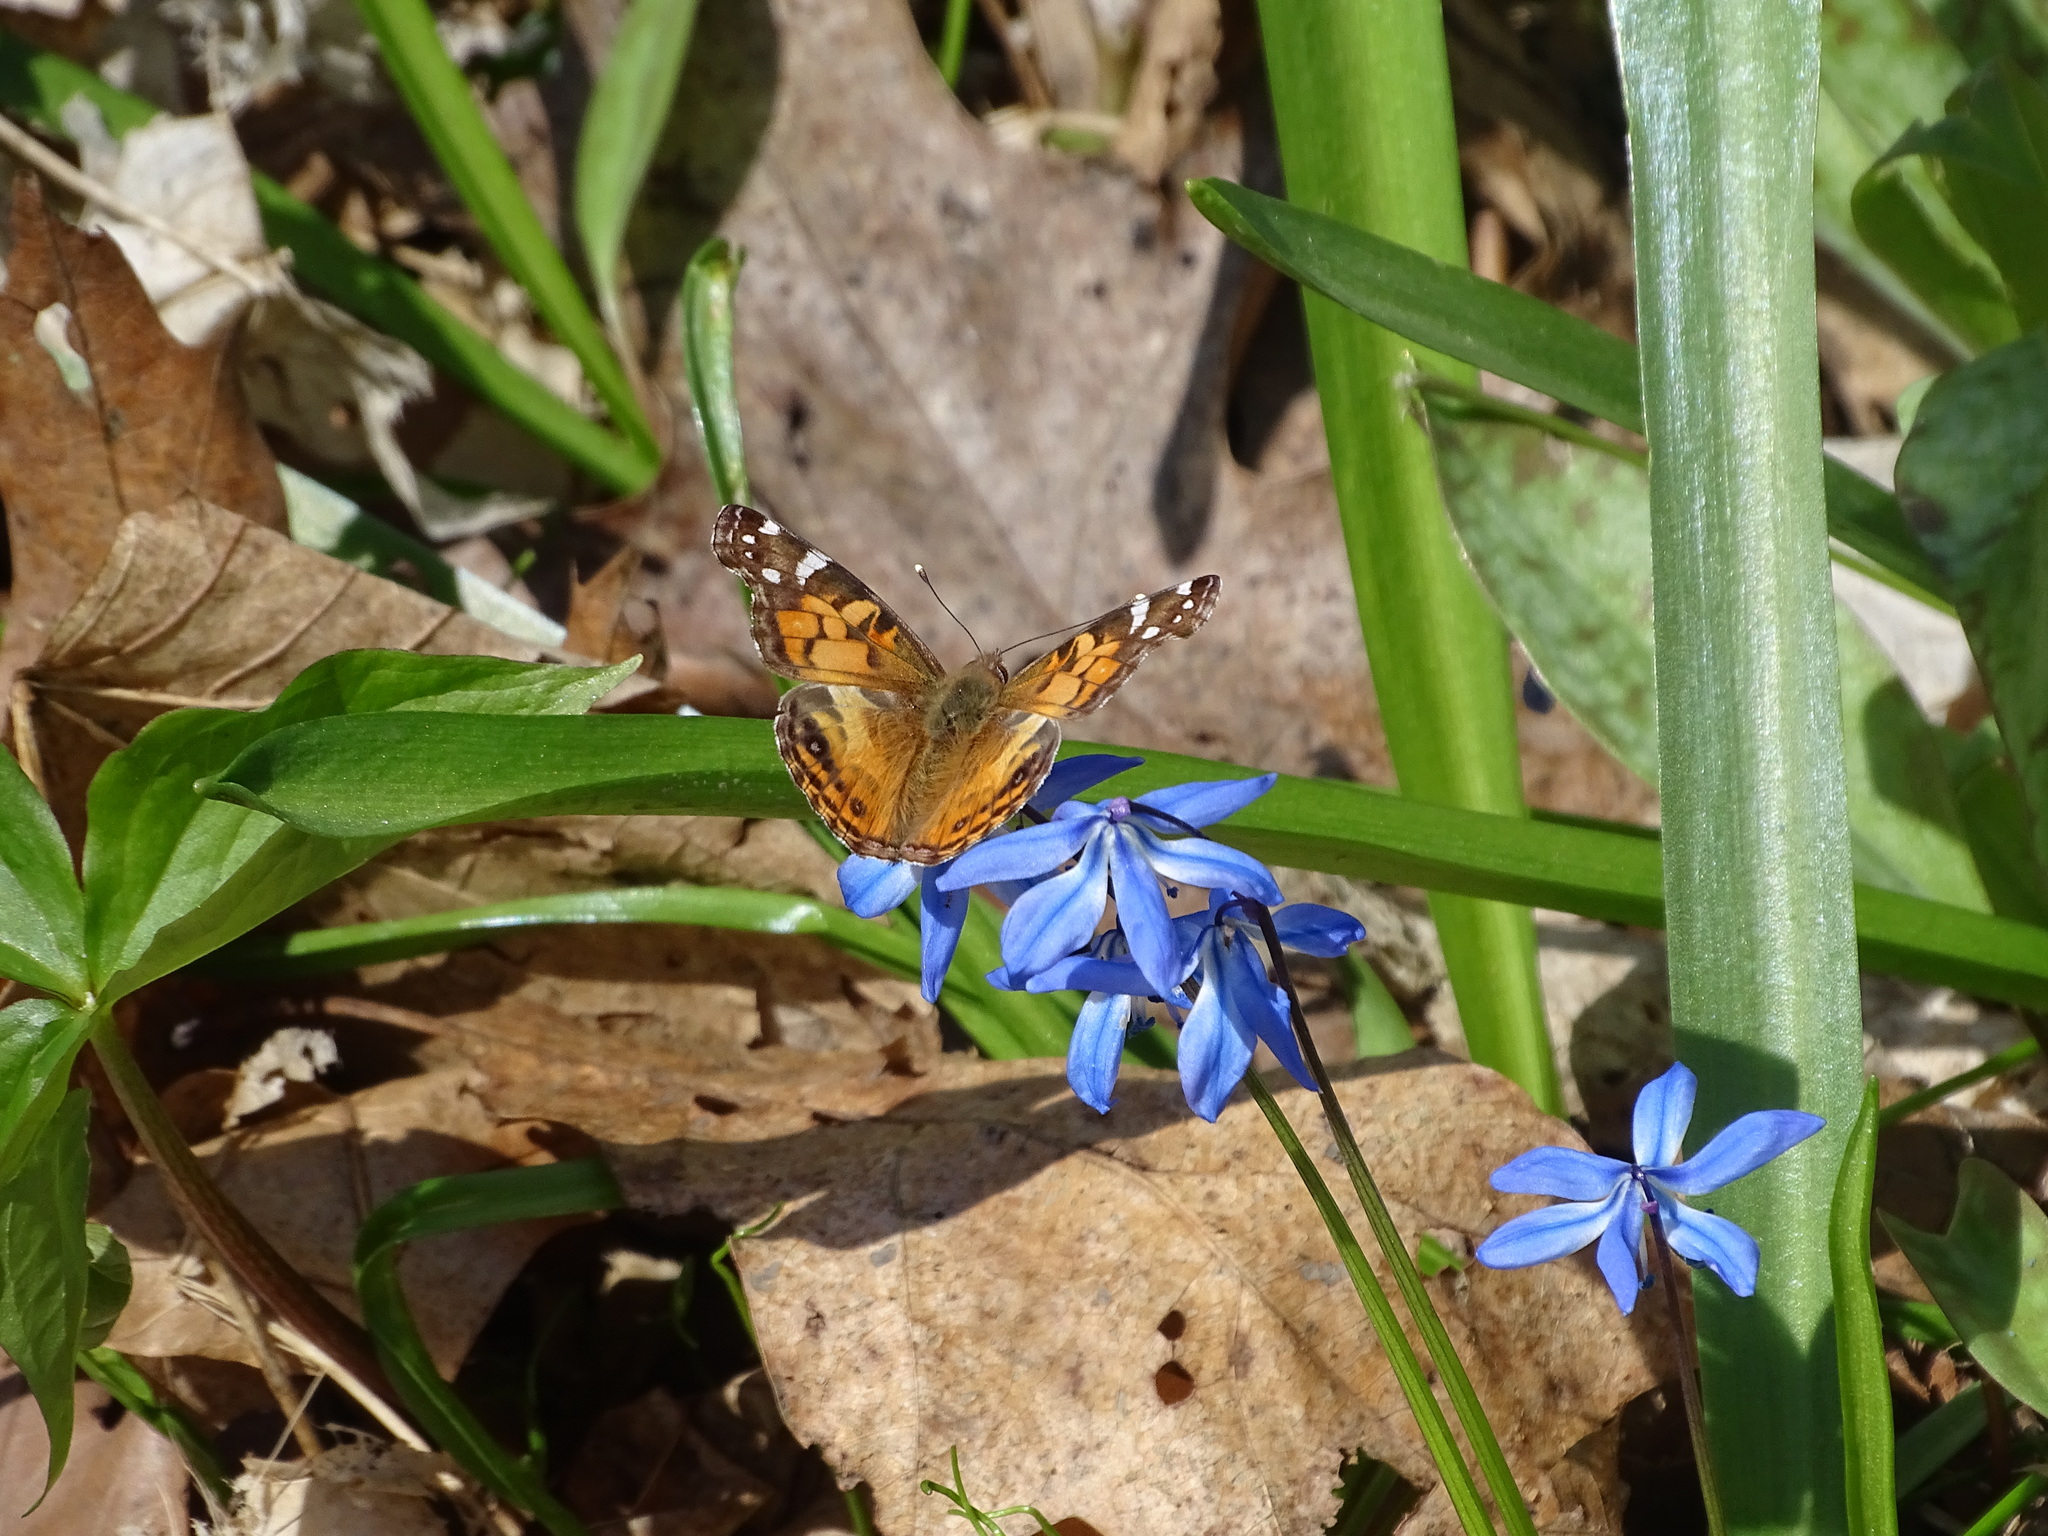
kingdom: Animalia
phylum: Arthropoda
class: Insecta
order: Lepidoptera
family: Nymphalidae
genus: Vanessa
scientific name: Vanessa virginiensis
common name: American lady
